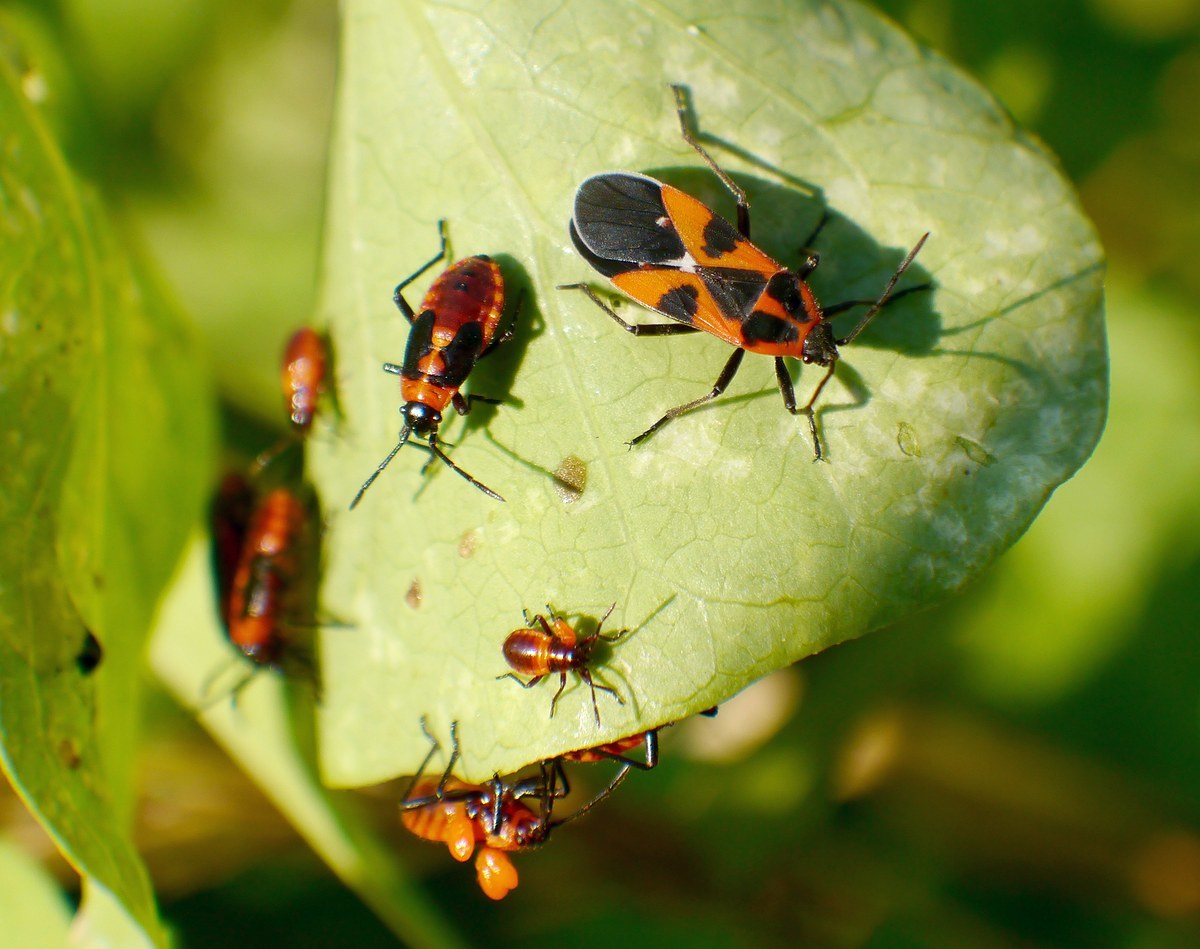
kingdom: Animalia
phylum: Arthropoda
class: Insecta
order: Hemiptera
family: Lygaeidae
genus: Tropidothorax
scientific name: Tropidothorax leucopterus
